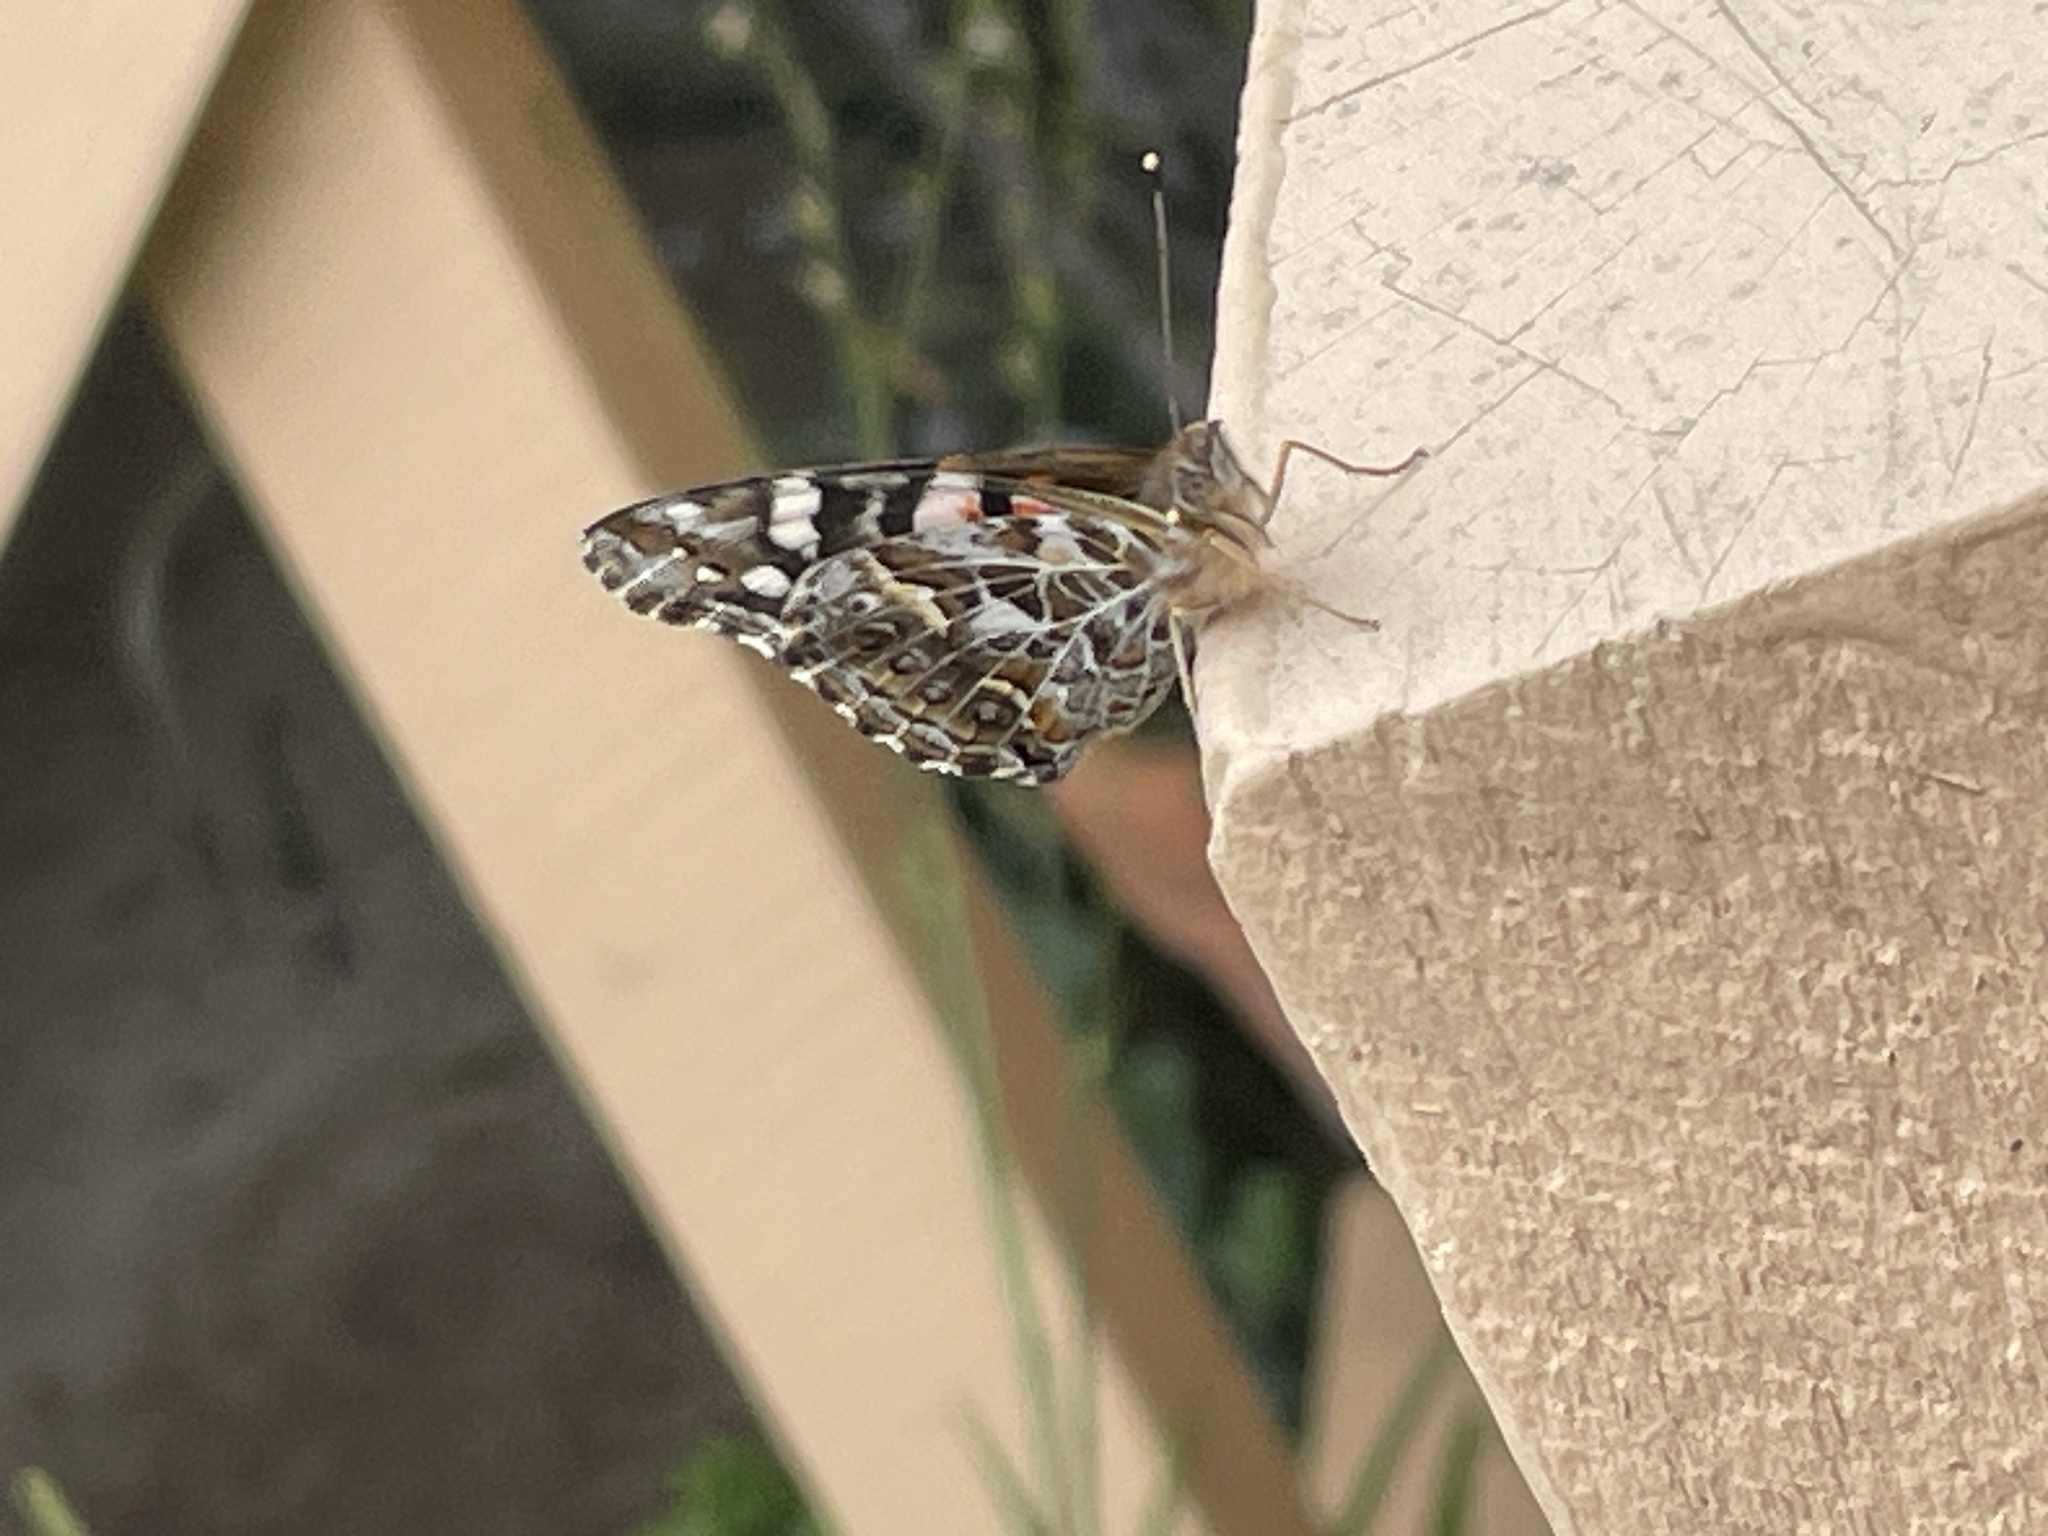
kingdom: Animalia
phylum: Arthropoda
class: Insecta
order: Lepidoptera
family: Nymphalidae
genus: Vanessa
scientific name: Vanessa kershawi
